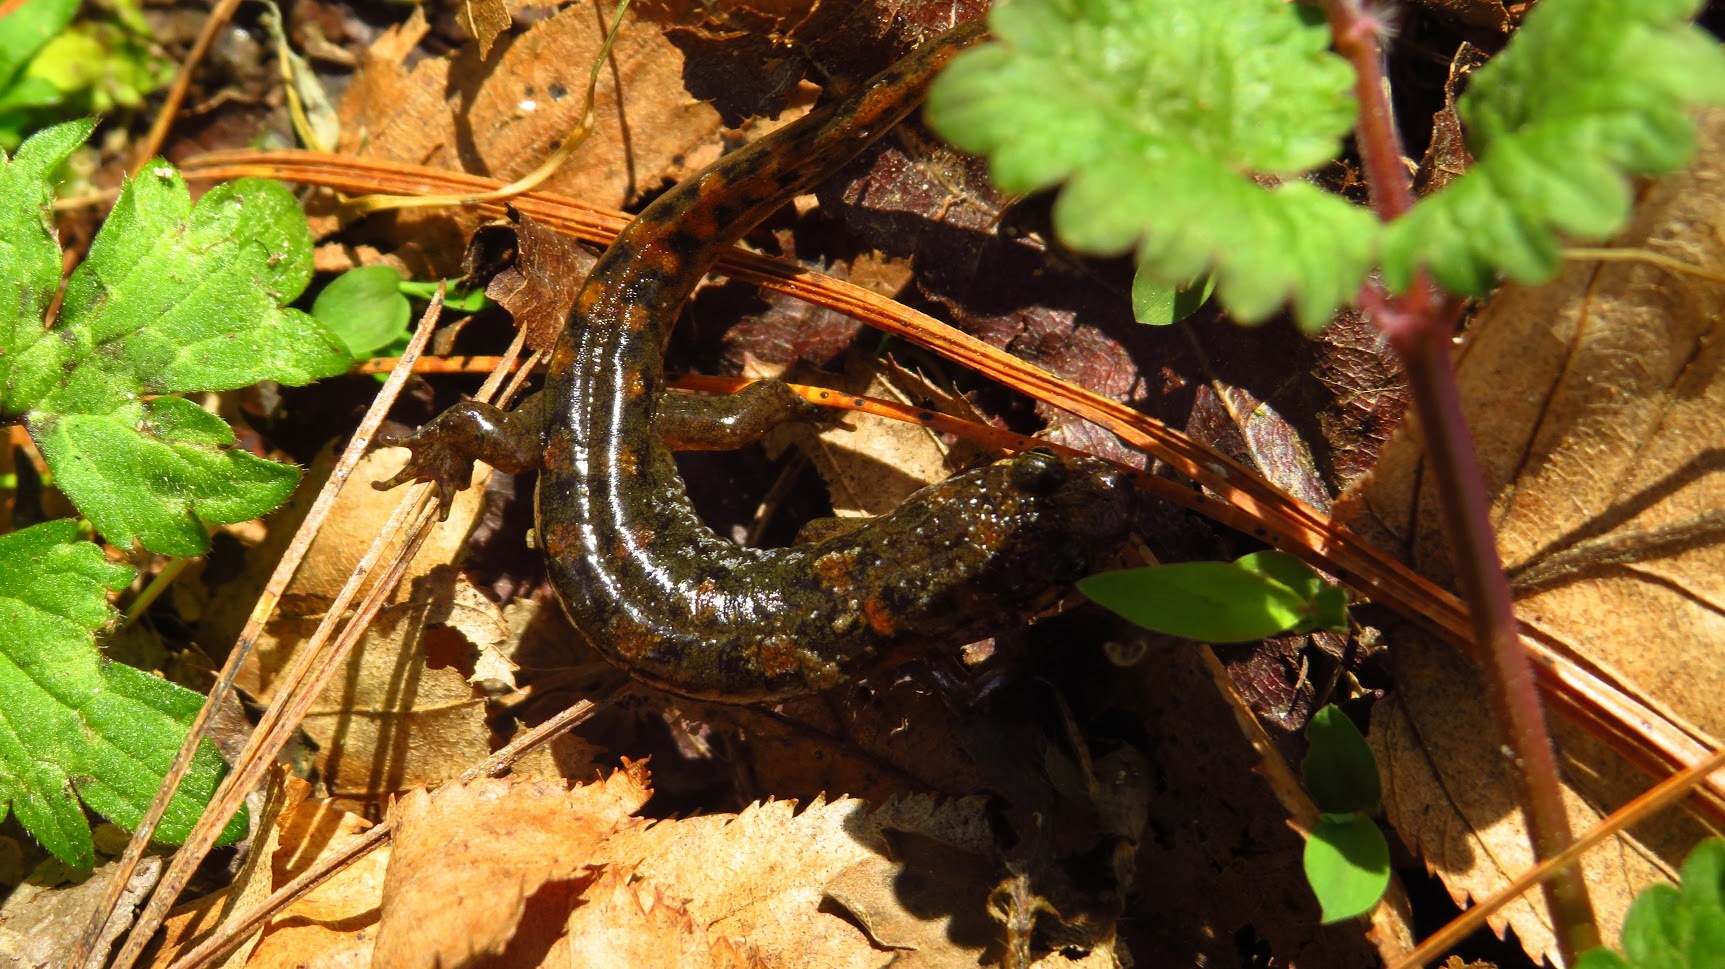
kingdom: Animalia
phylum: Chordata
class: Amphibia
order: Caudata
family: Plethodontidae
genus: Desmognathus
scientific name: Desmognathus monticola
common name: Seal salamander
